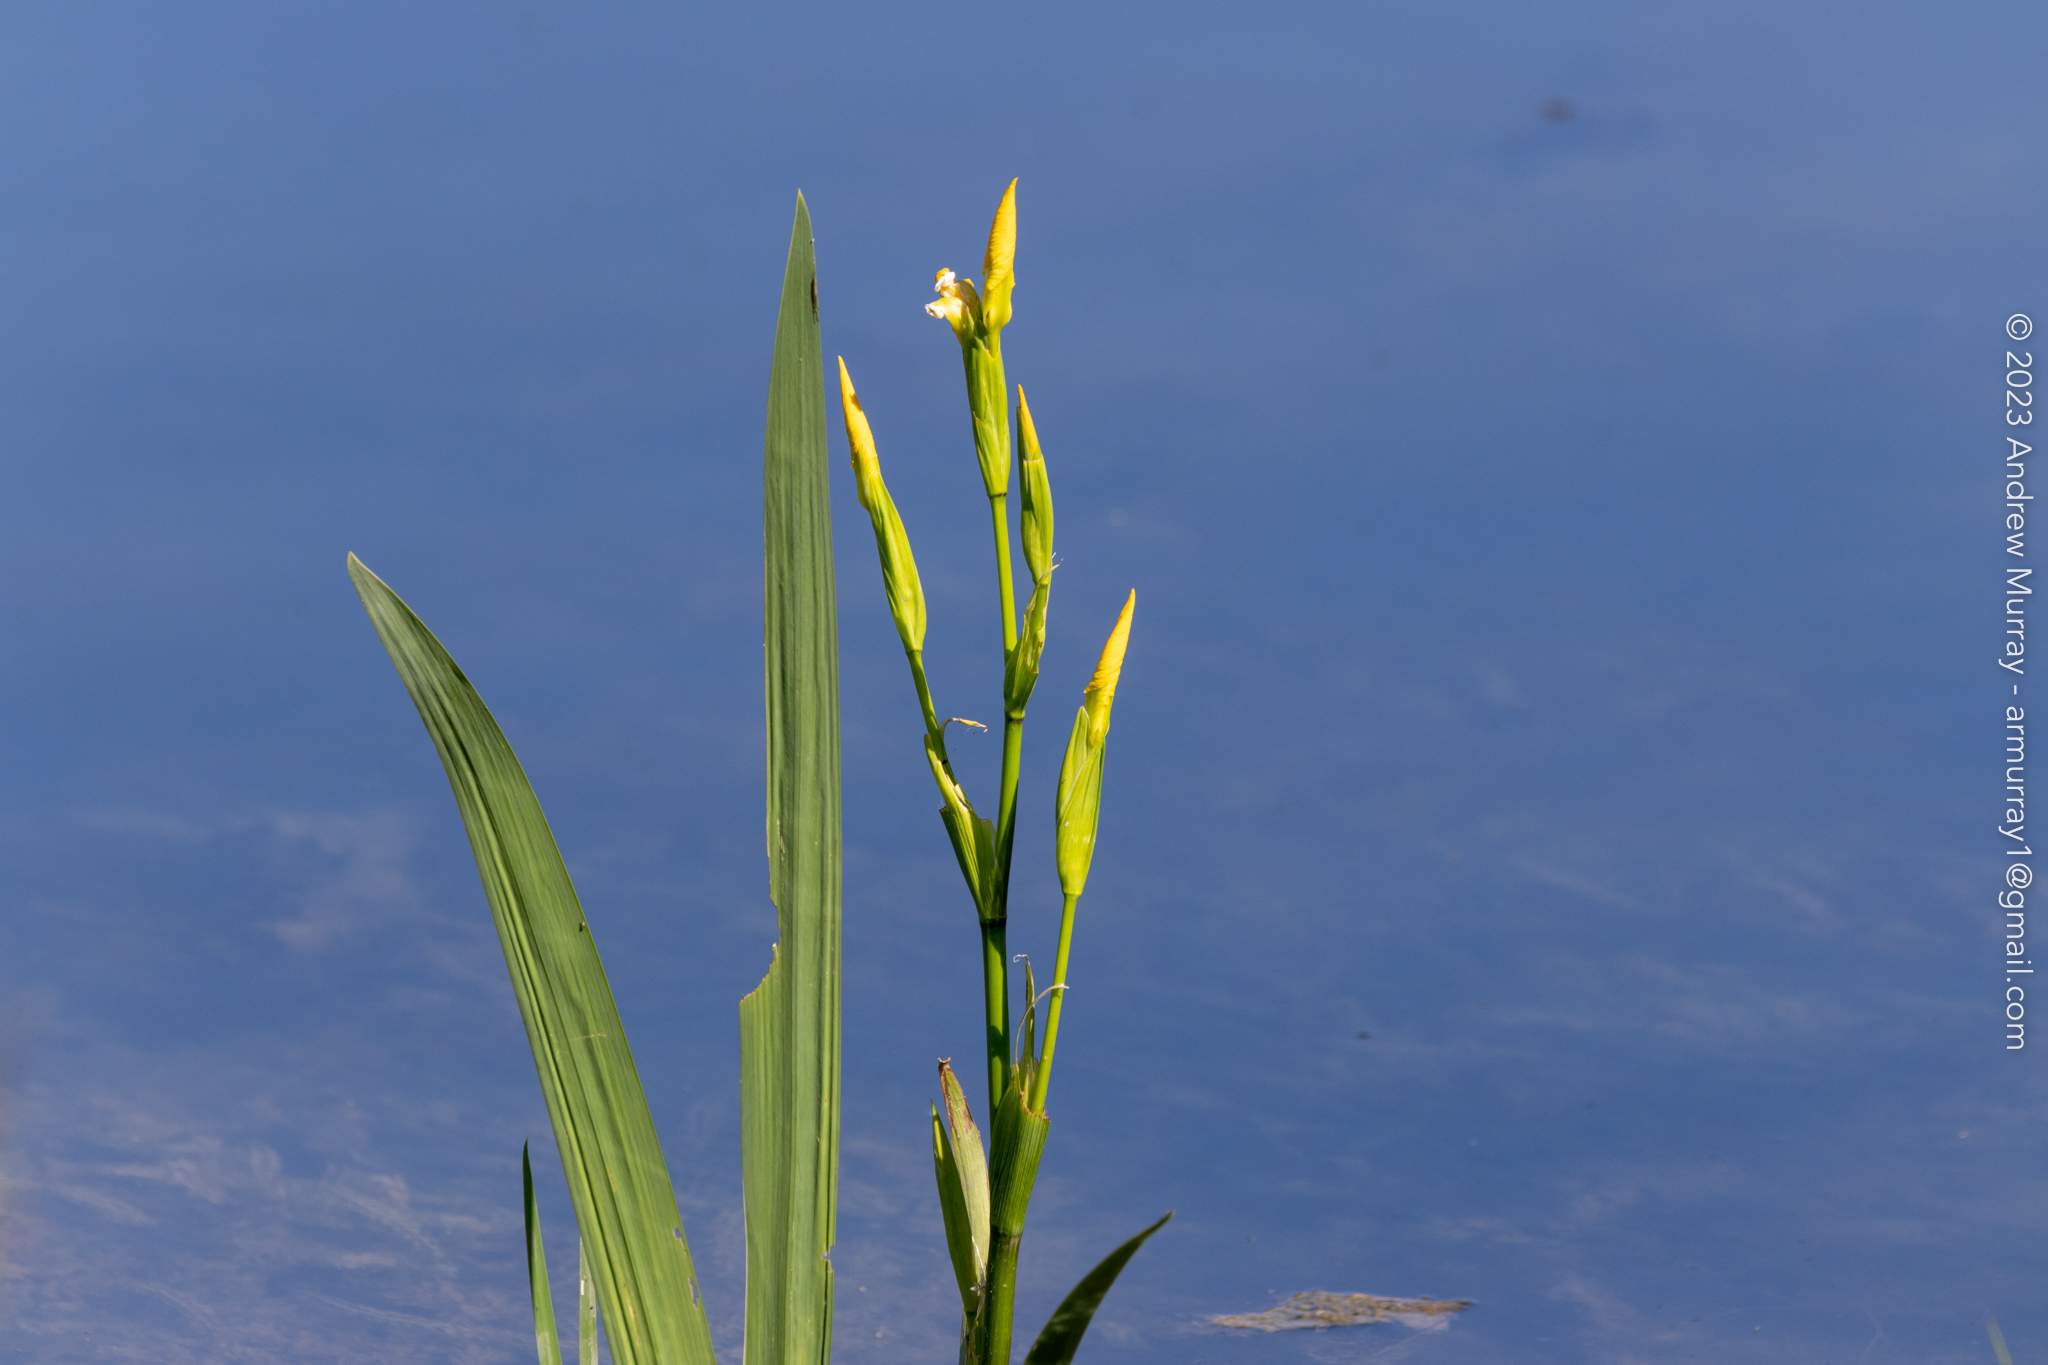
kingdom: Plantae
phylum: Tracheophyta
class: Liliopsida
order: Asparagales
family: Iridaceae
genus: Iris
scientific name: Iris pseudacorus
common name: Yellow flag
